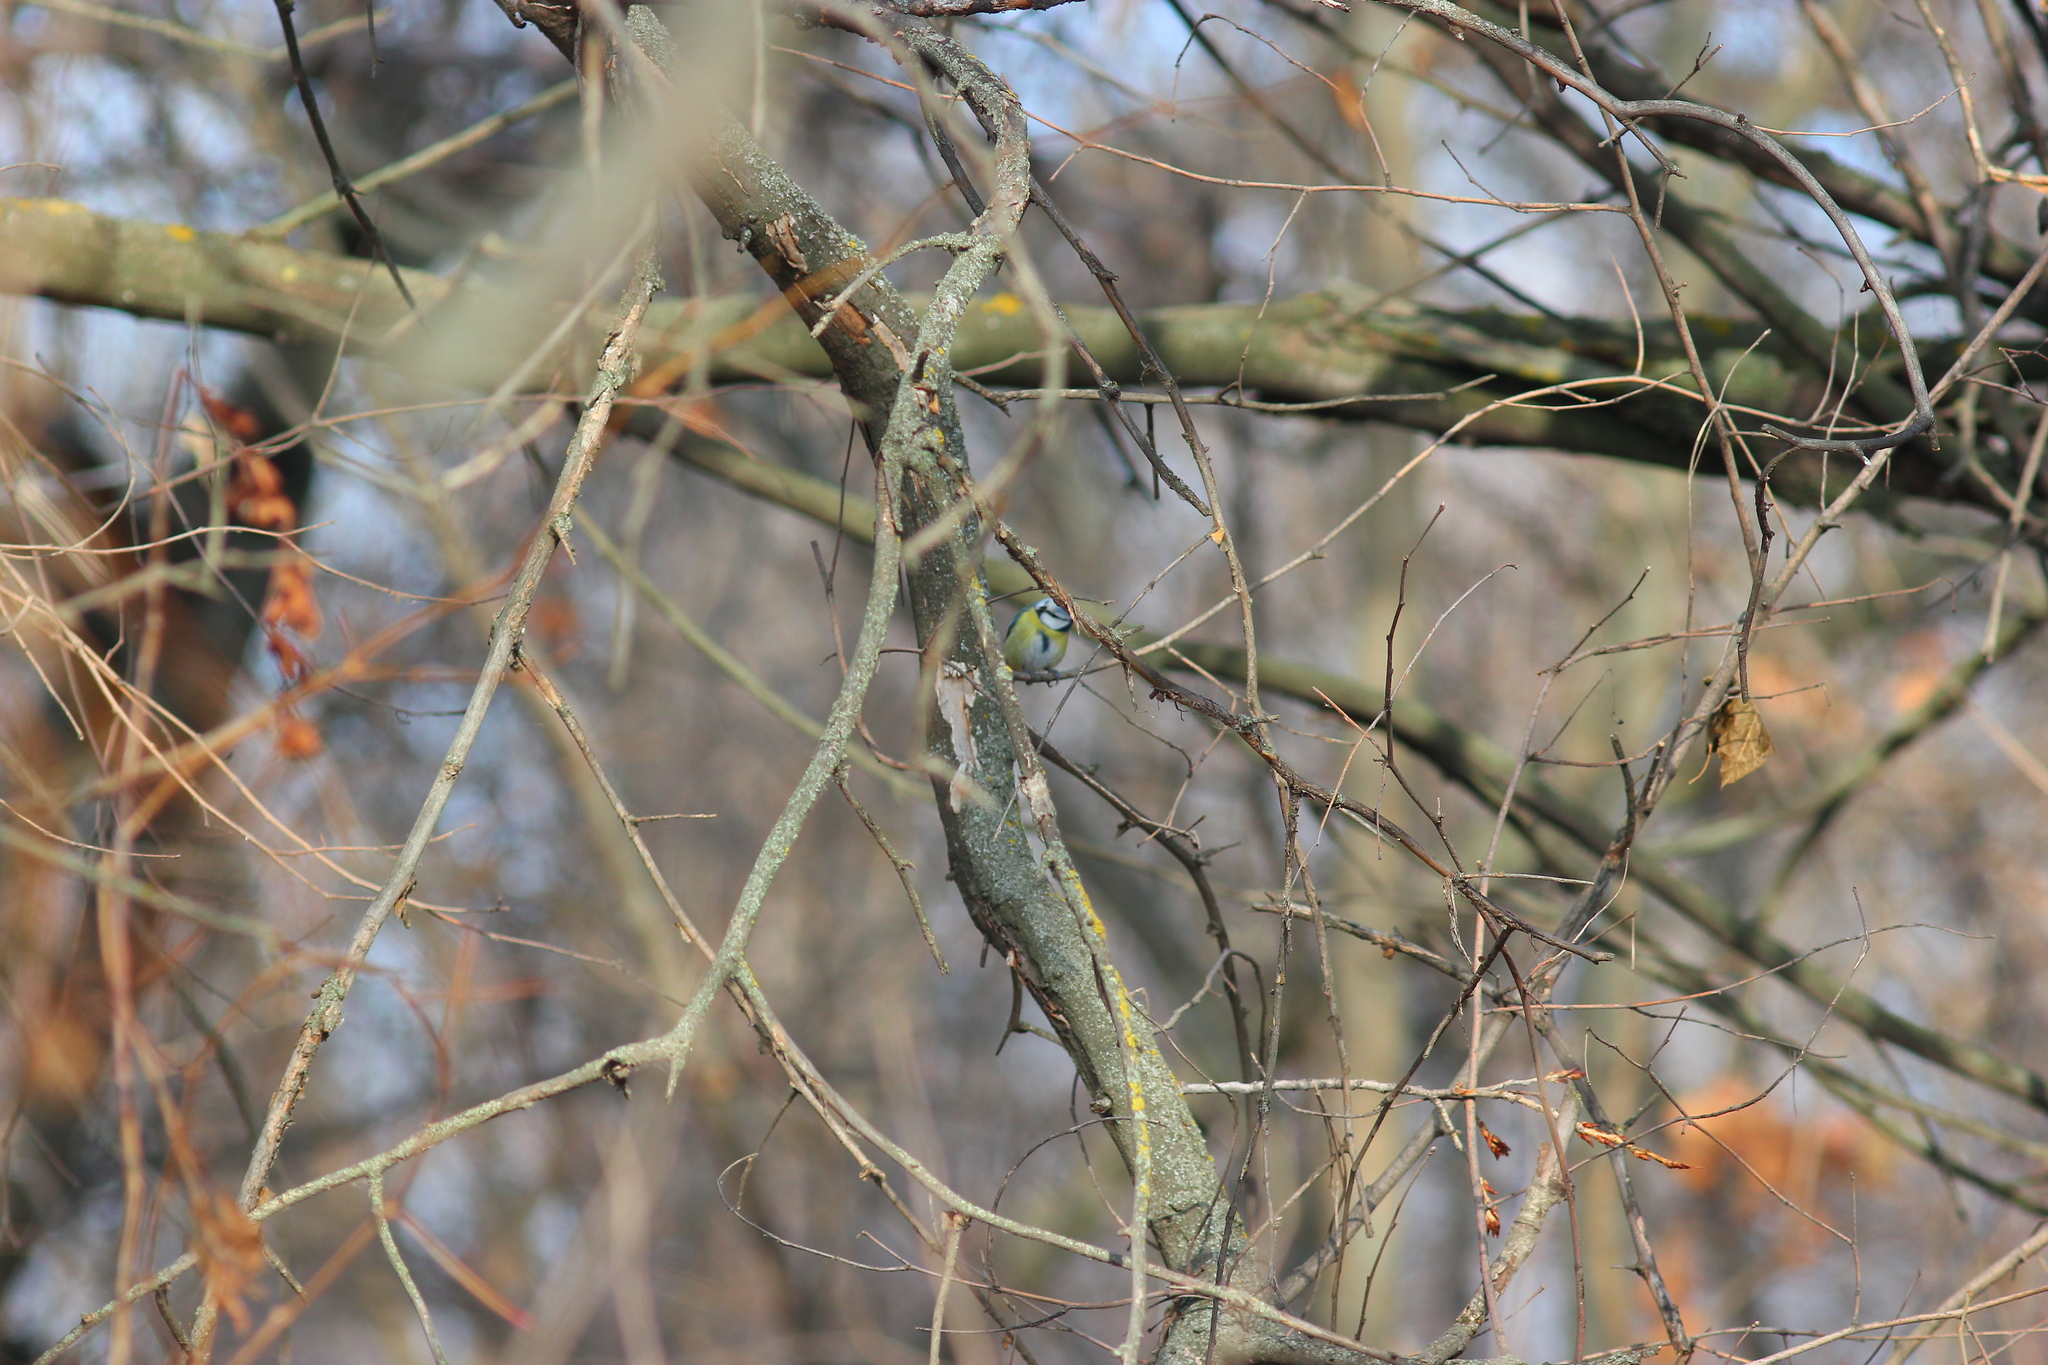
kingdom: Animalia
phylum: Chordata
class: Aves
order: Passeriformes
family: Paridae
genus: Cyanistes
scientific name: Cyanistes caeruleus
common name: Eurasian blue tit
